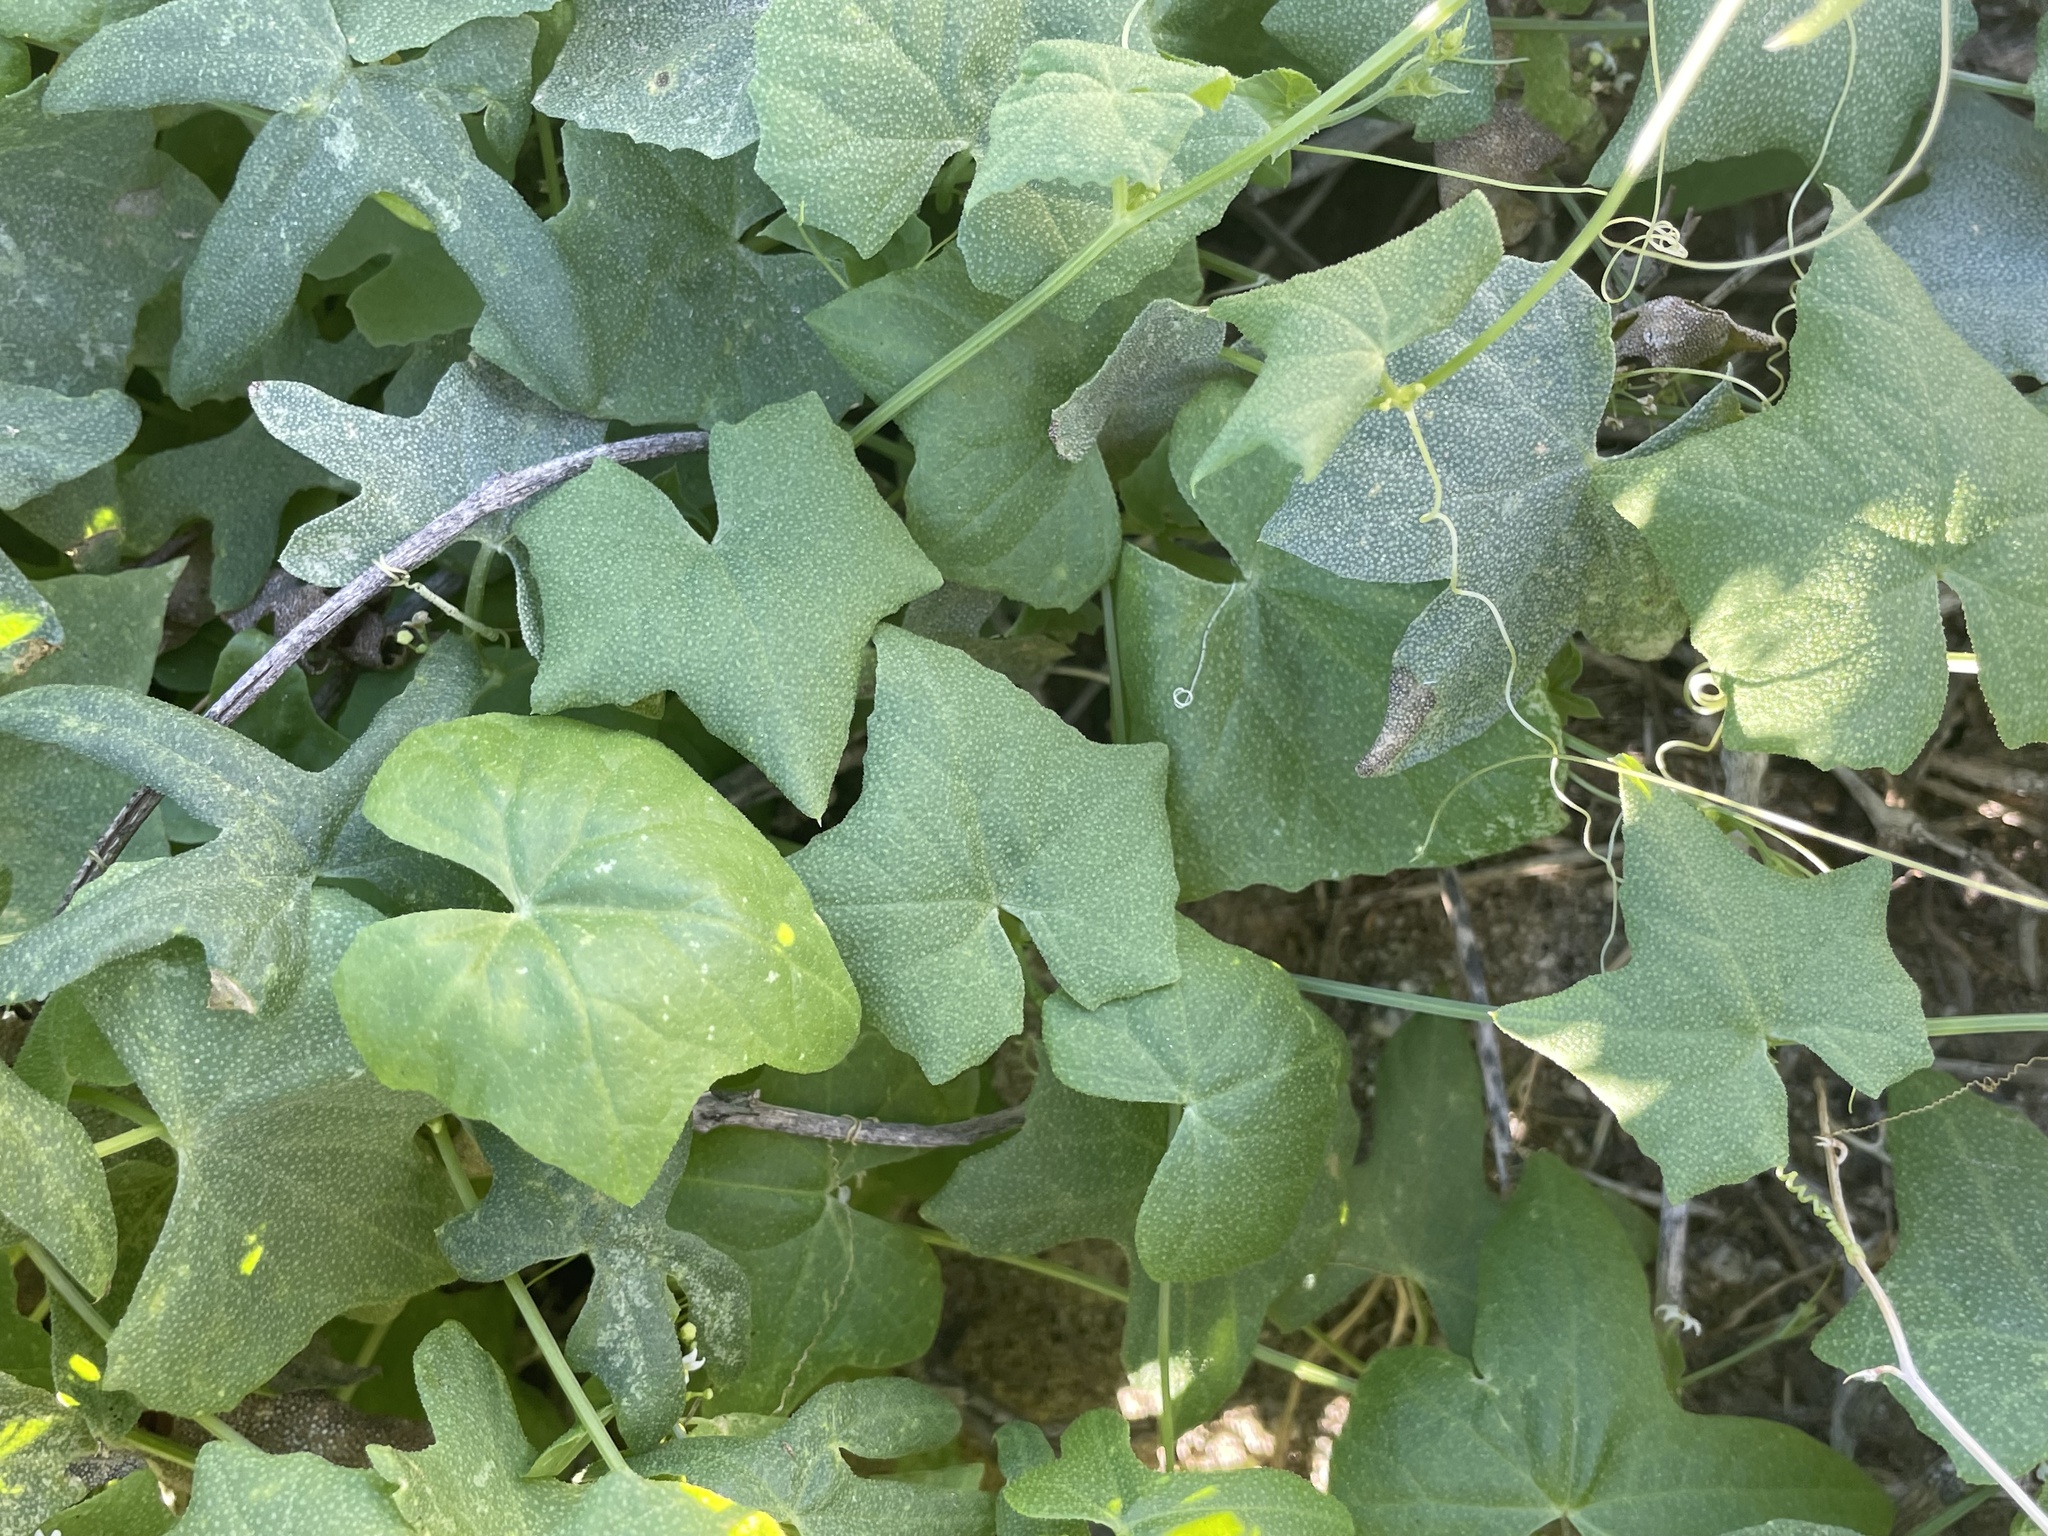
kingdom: Plantae
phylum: Tracheophyta
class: Magnoliopsida
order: Cucurbitales
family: Cucurbitaceae
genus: Echinopepon
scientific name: Echinopepon bigelovii
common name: Desert starvine
